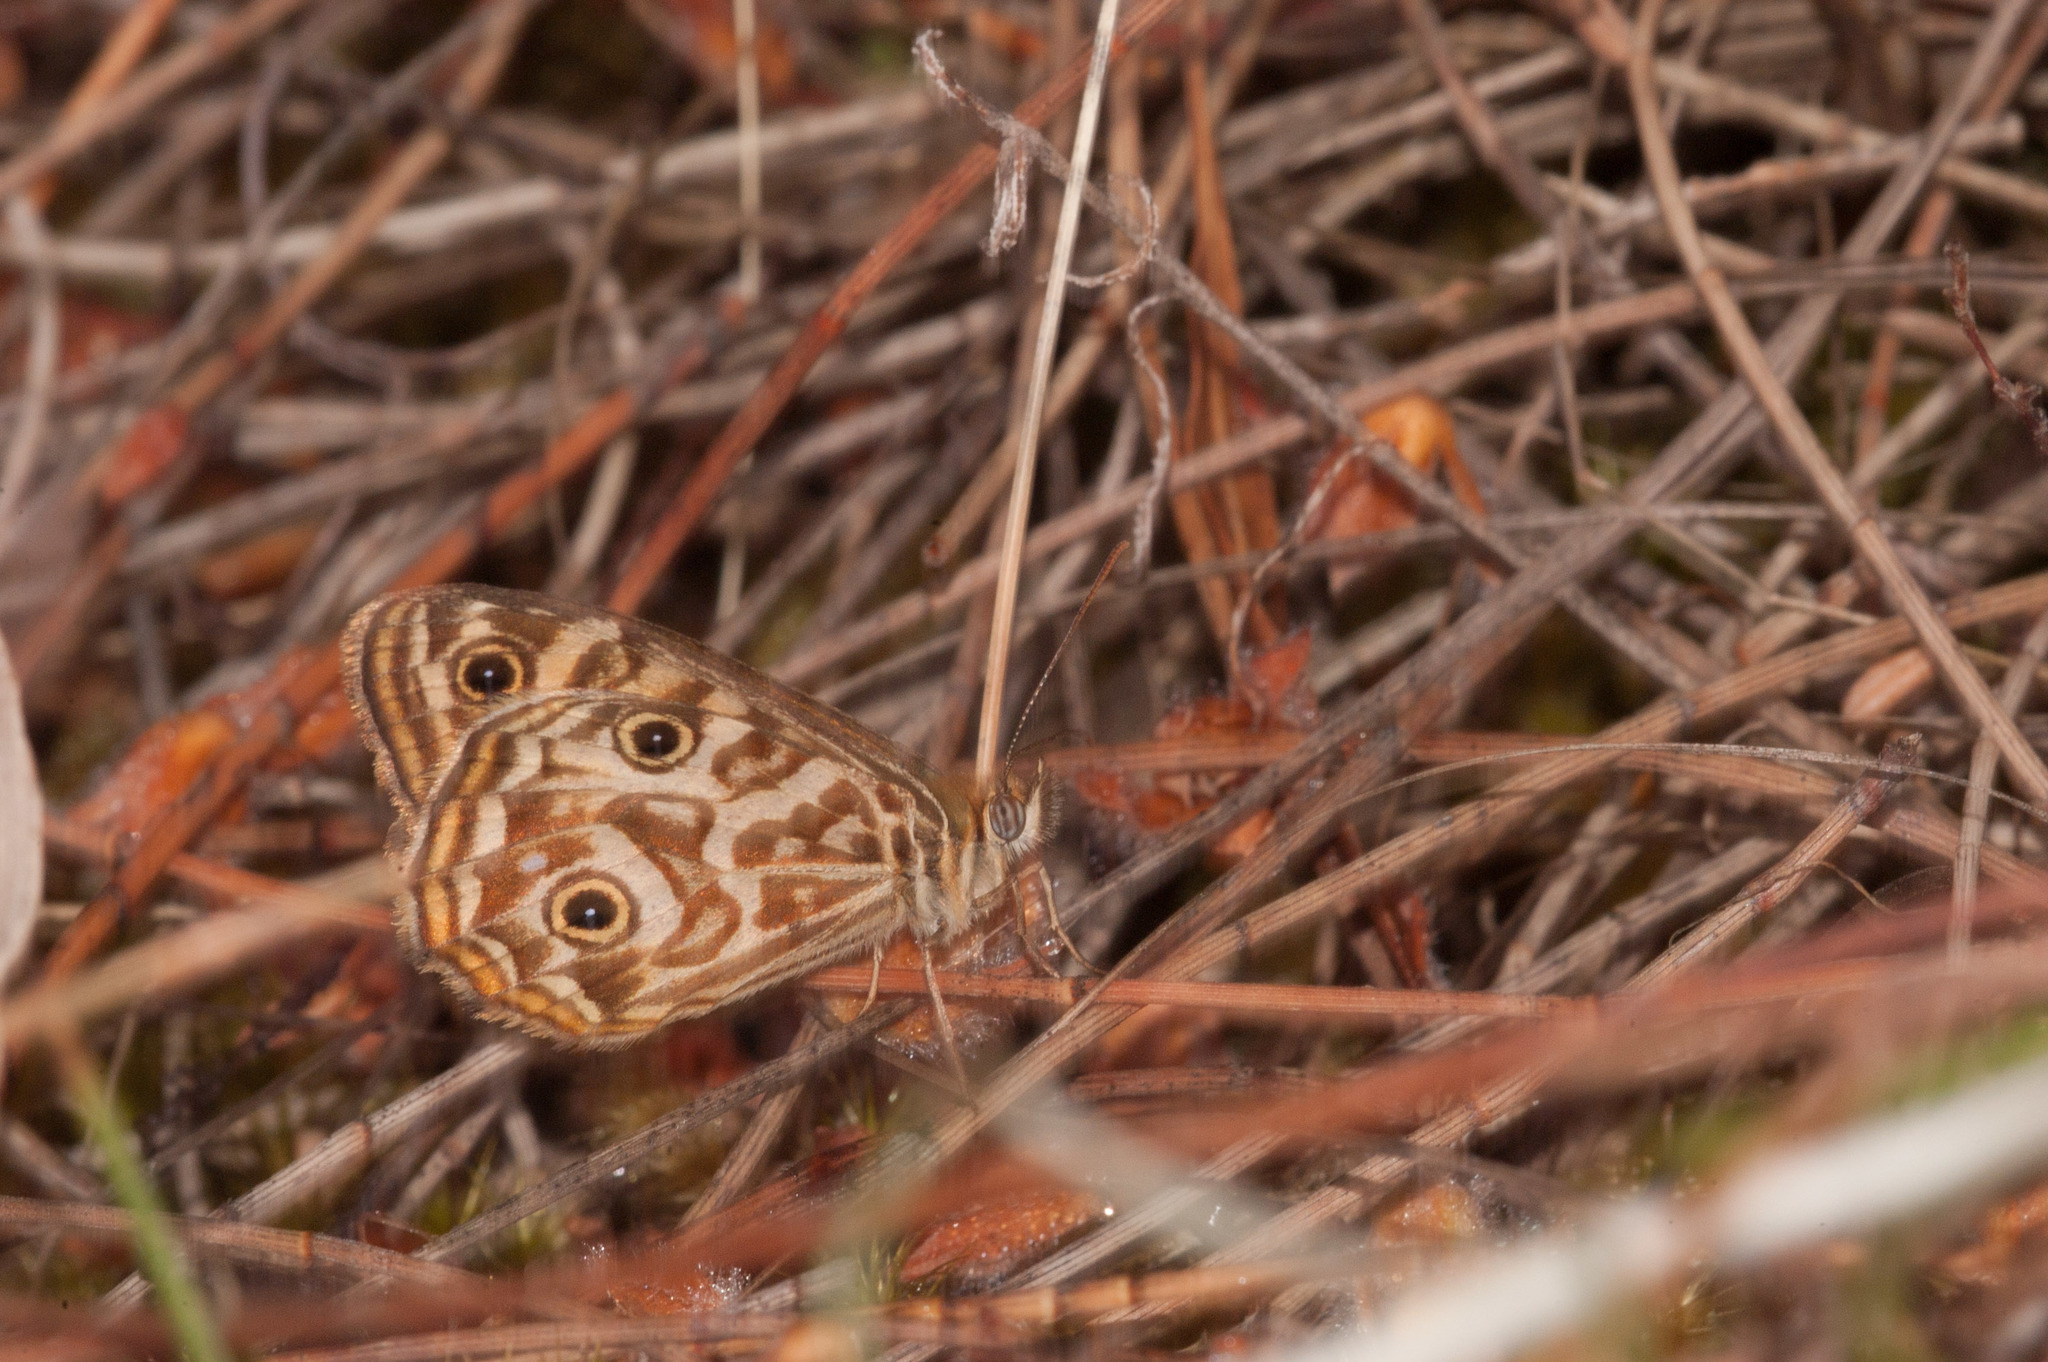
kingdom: Animalia
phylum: Arthropoda
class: Insecta
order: Lepidoptera
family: Nymphalidae
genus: Geitoneura
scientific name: Geitoneura acantha
